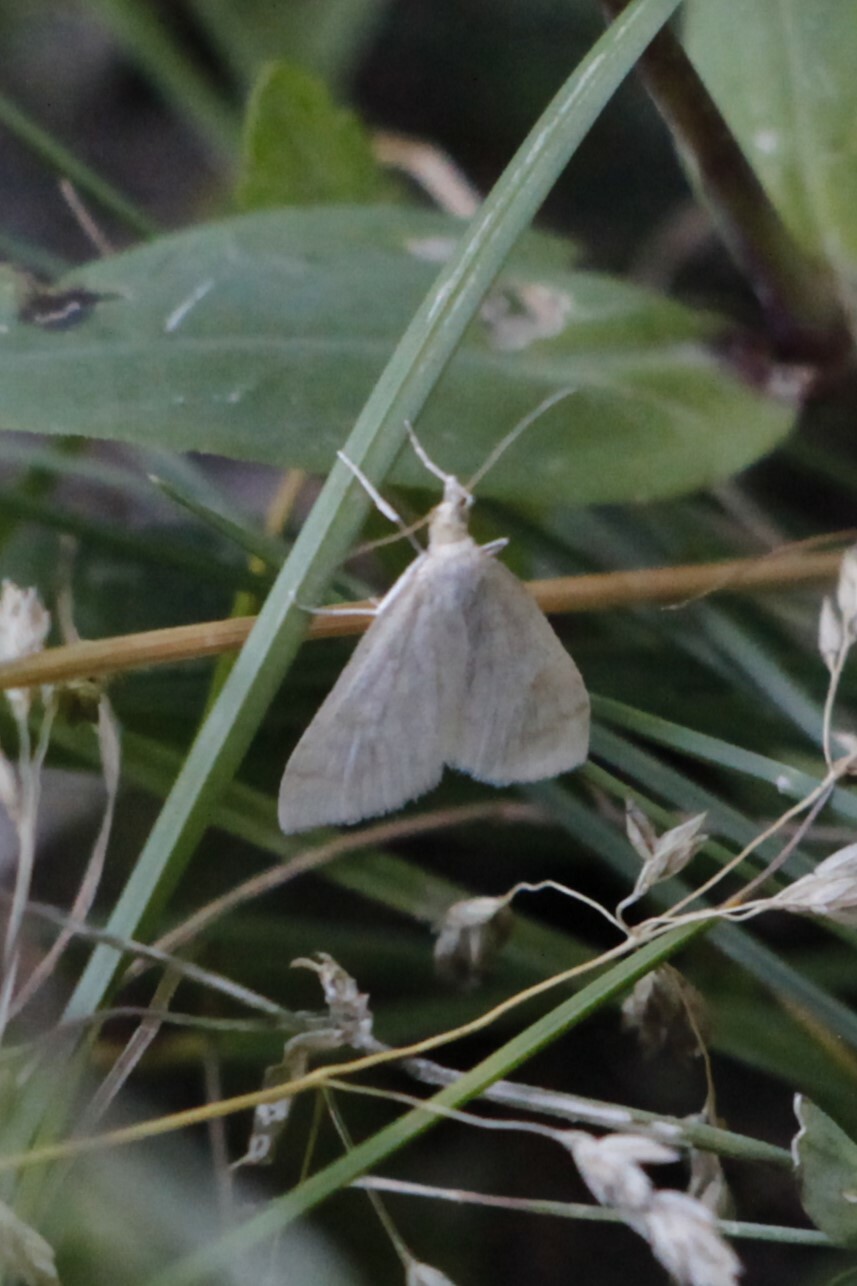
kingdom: Animalia
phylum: Arthropoda
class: Insecta
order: Lepidoptera
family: Crambidae
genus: Udea
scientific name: Udea lutealis
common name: Pale straw pearl
